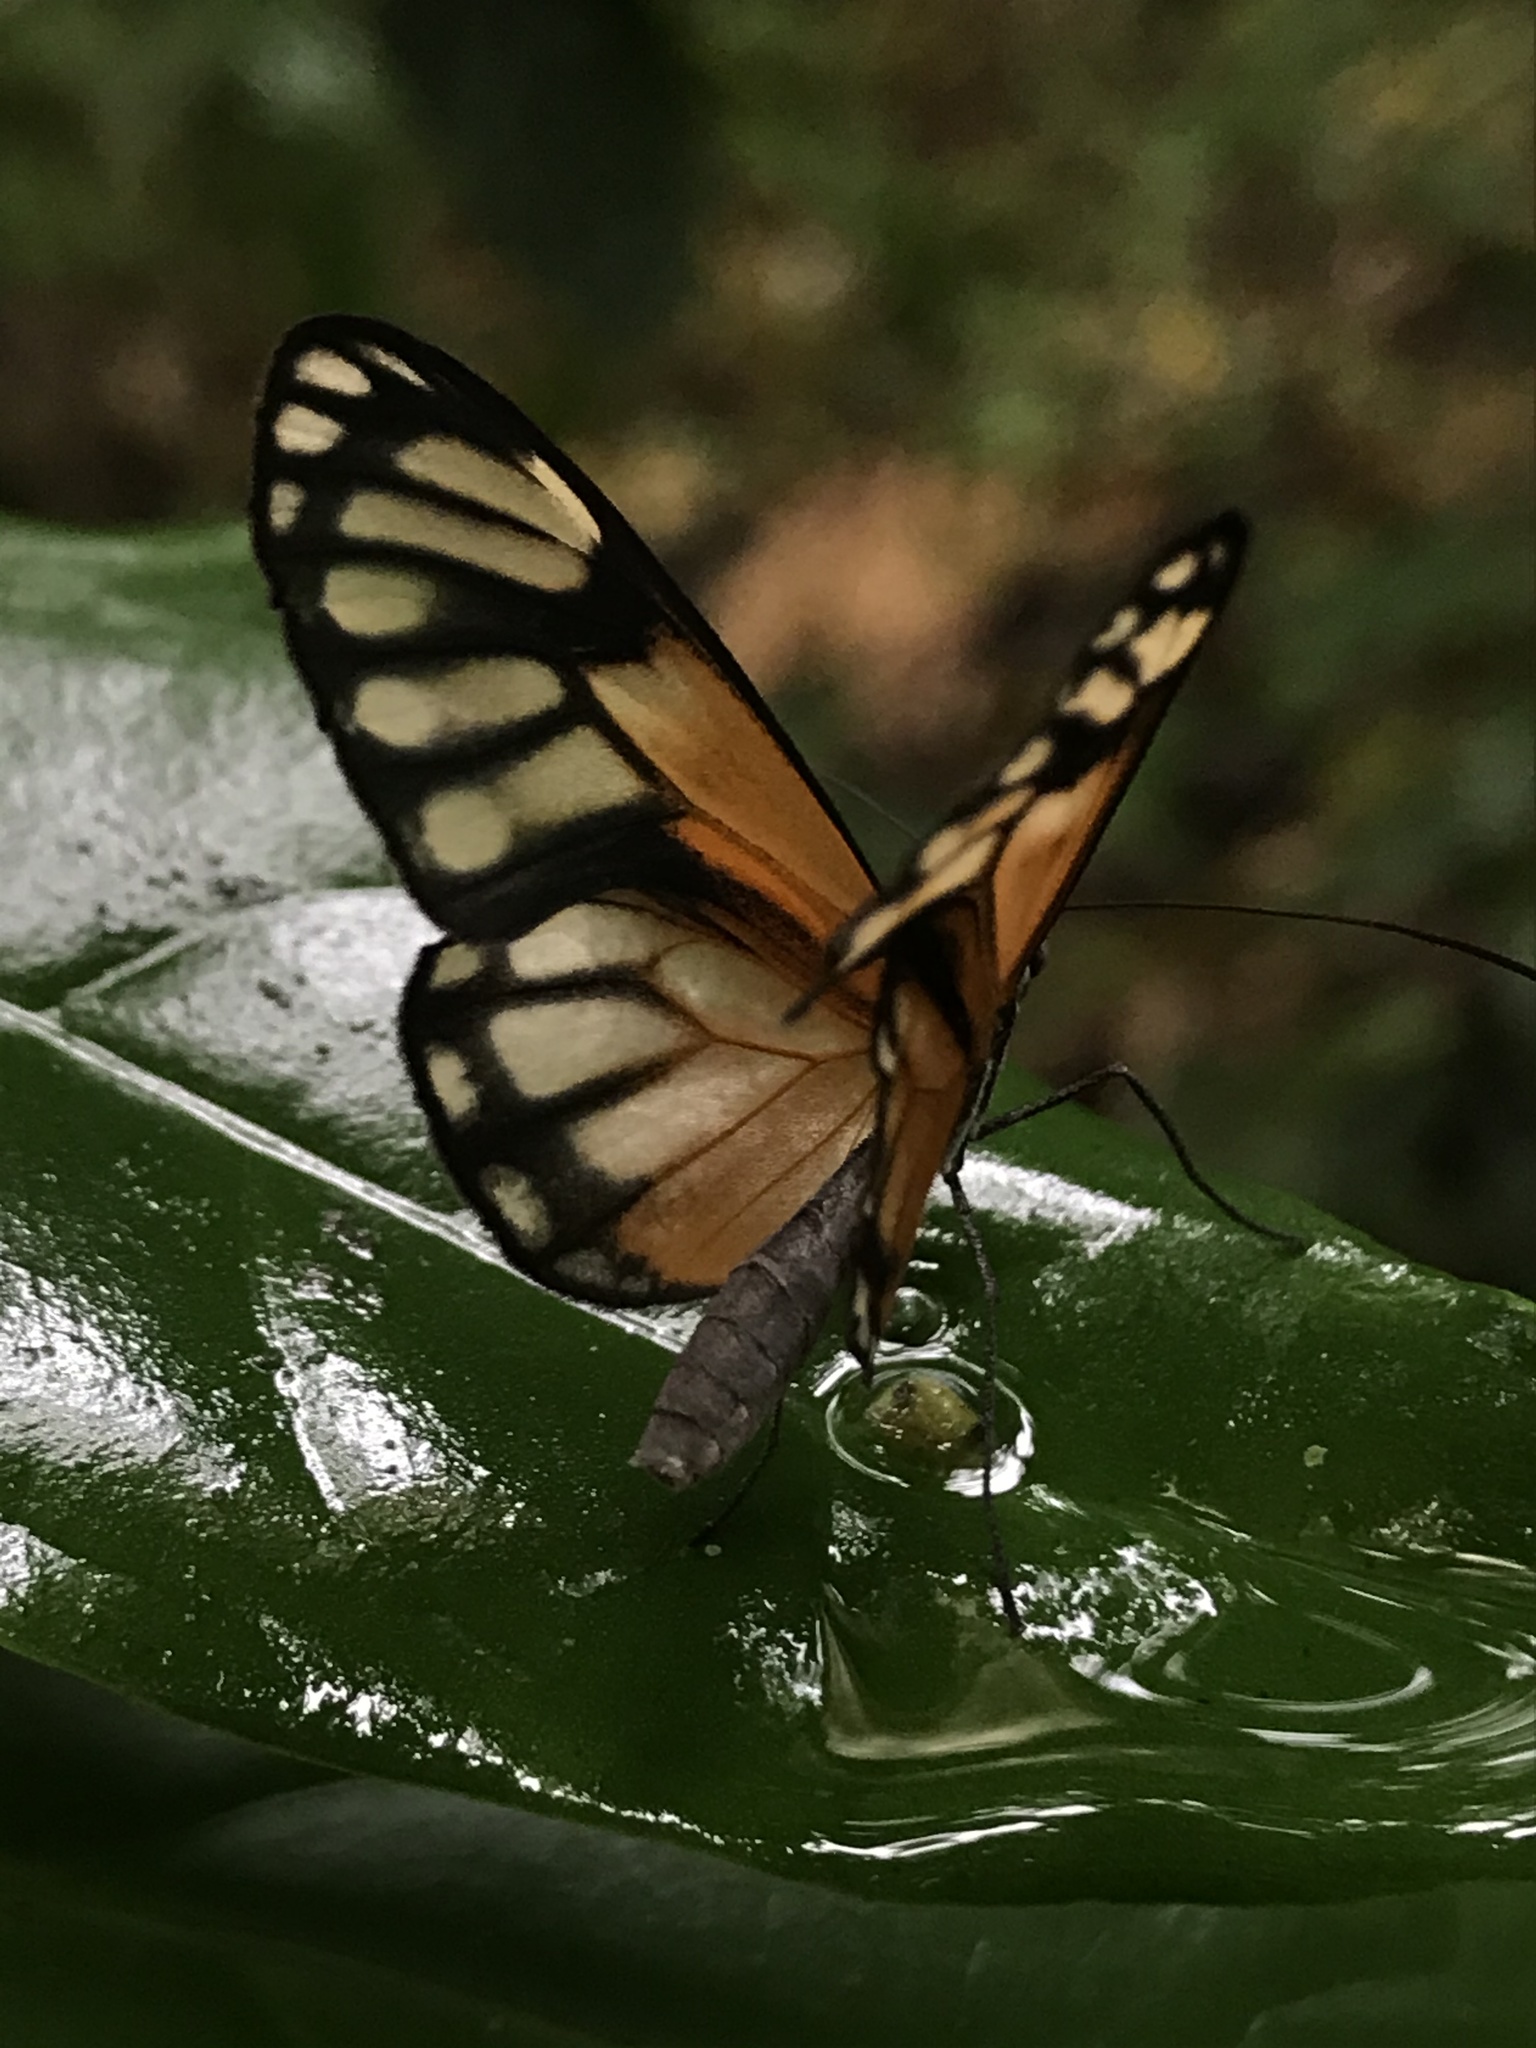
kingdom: Animalia
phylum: Arthropoda
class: Insecta
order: Lepidoptera
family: Nymphalidae
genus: Hypoleria
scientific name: Hypoleria ocalea
